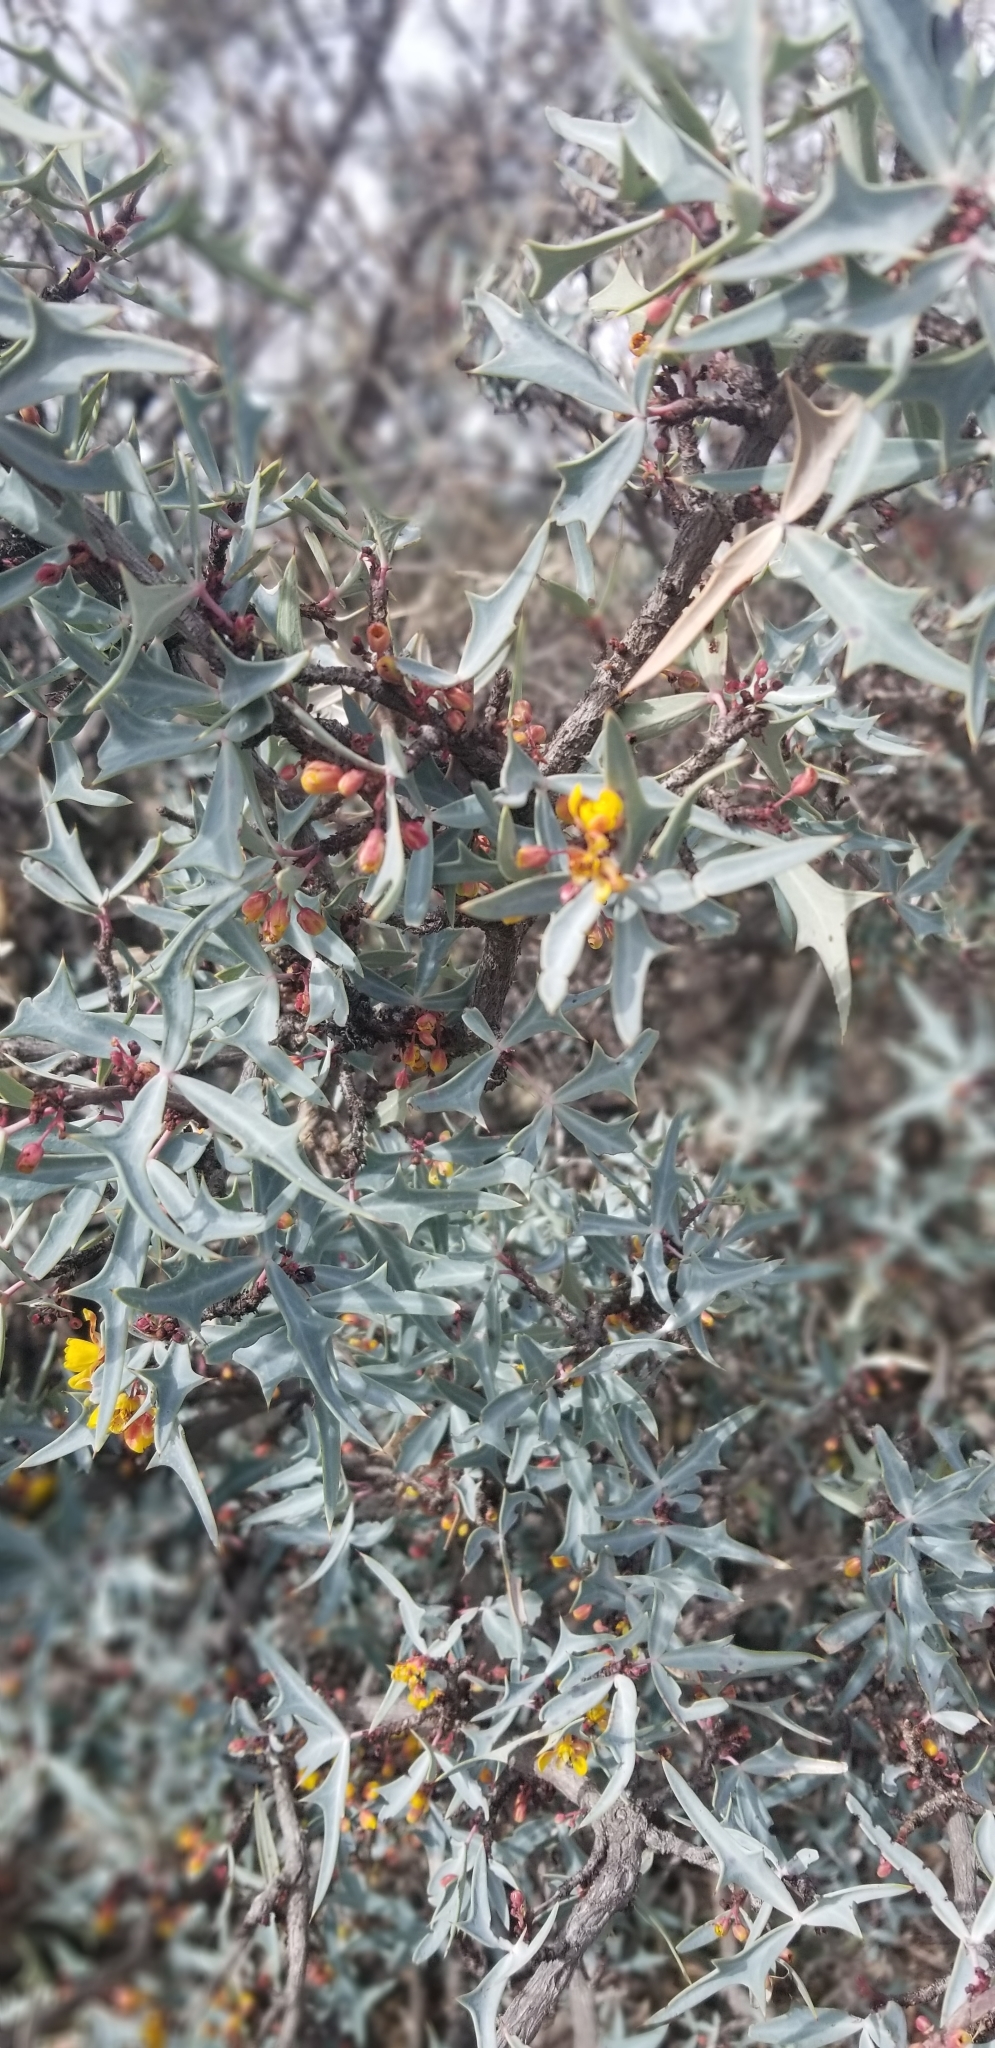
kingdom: Plantae
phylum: Tracheophyta
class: Magnoliopsida
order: Ranunculales
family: Berberidaceae
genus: Alloberberis
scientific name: Alloberberis trifoliolata
